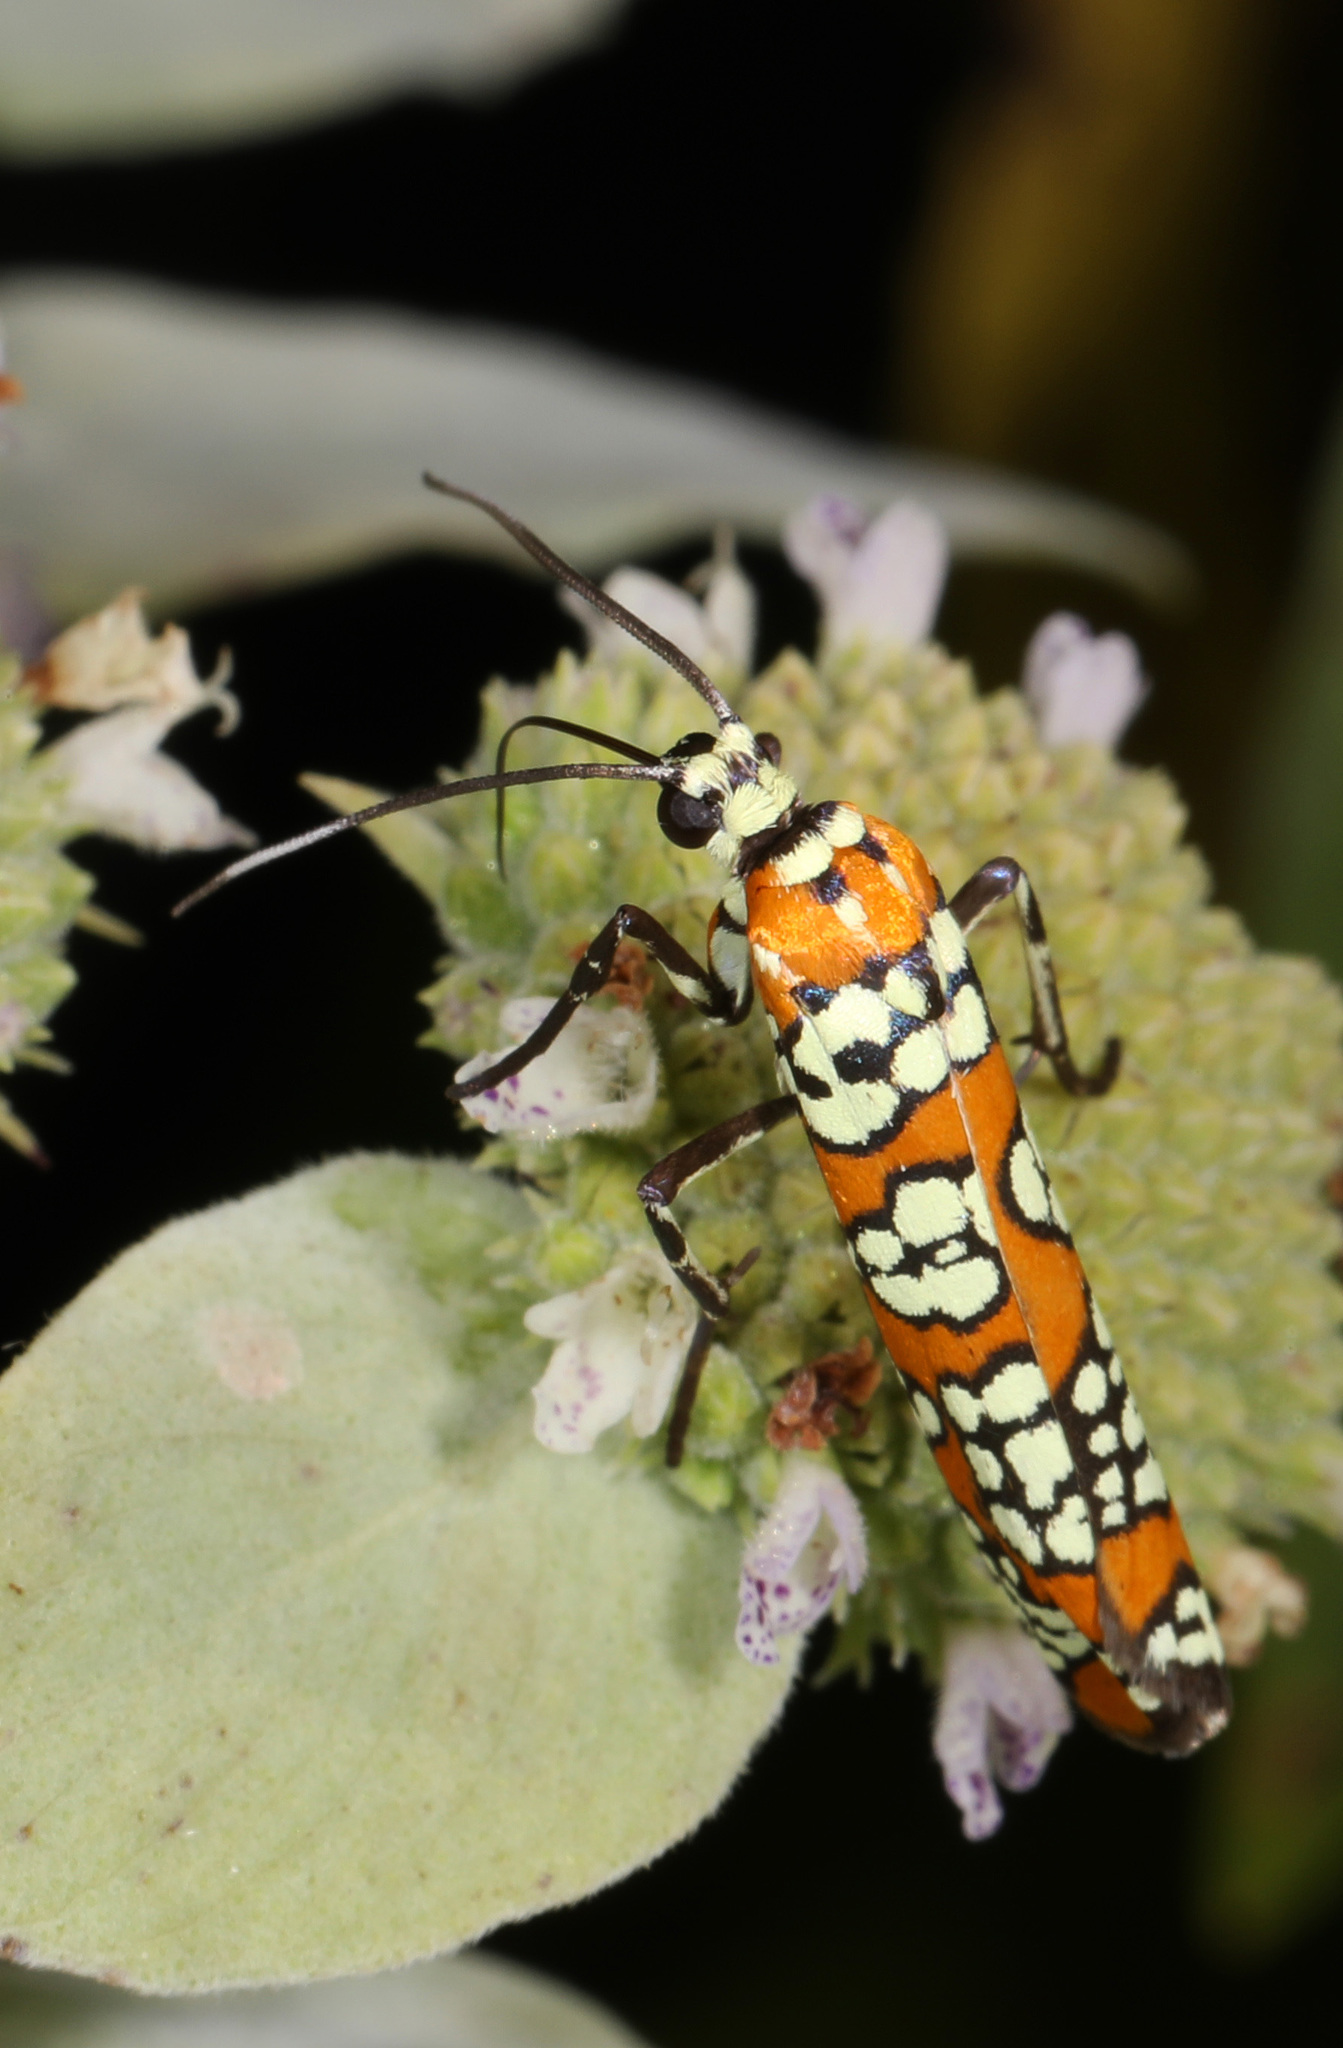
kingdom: Animalia
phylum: Arthropoda
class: Insecta
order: Lepidoptera
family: Attevidae
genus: Atteva
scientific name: Atteva punctella
